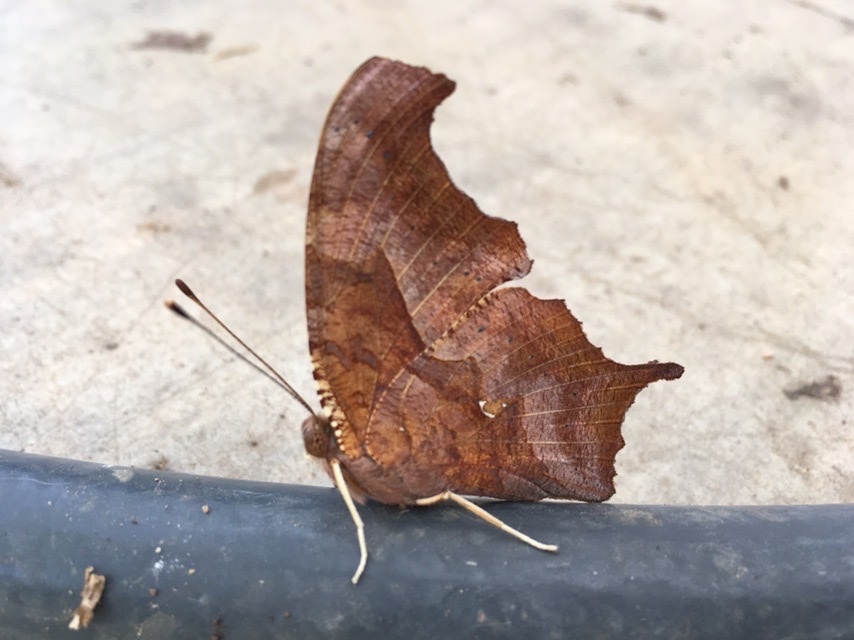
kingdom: Animalia
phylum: Arthropoda
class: Insecta
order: Lepidoptera
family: Nymphalidae
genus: Polygonia
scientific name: Polygonia interrogationis
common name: Question mark
